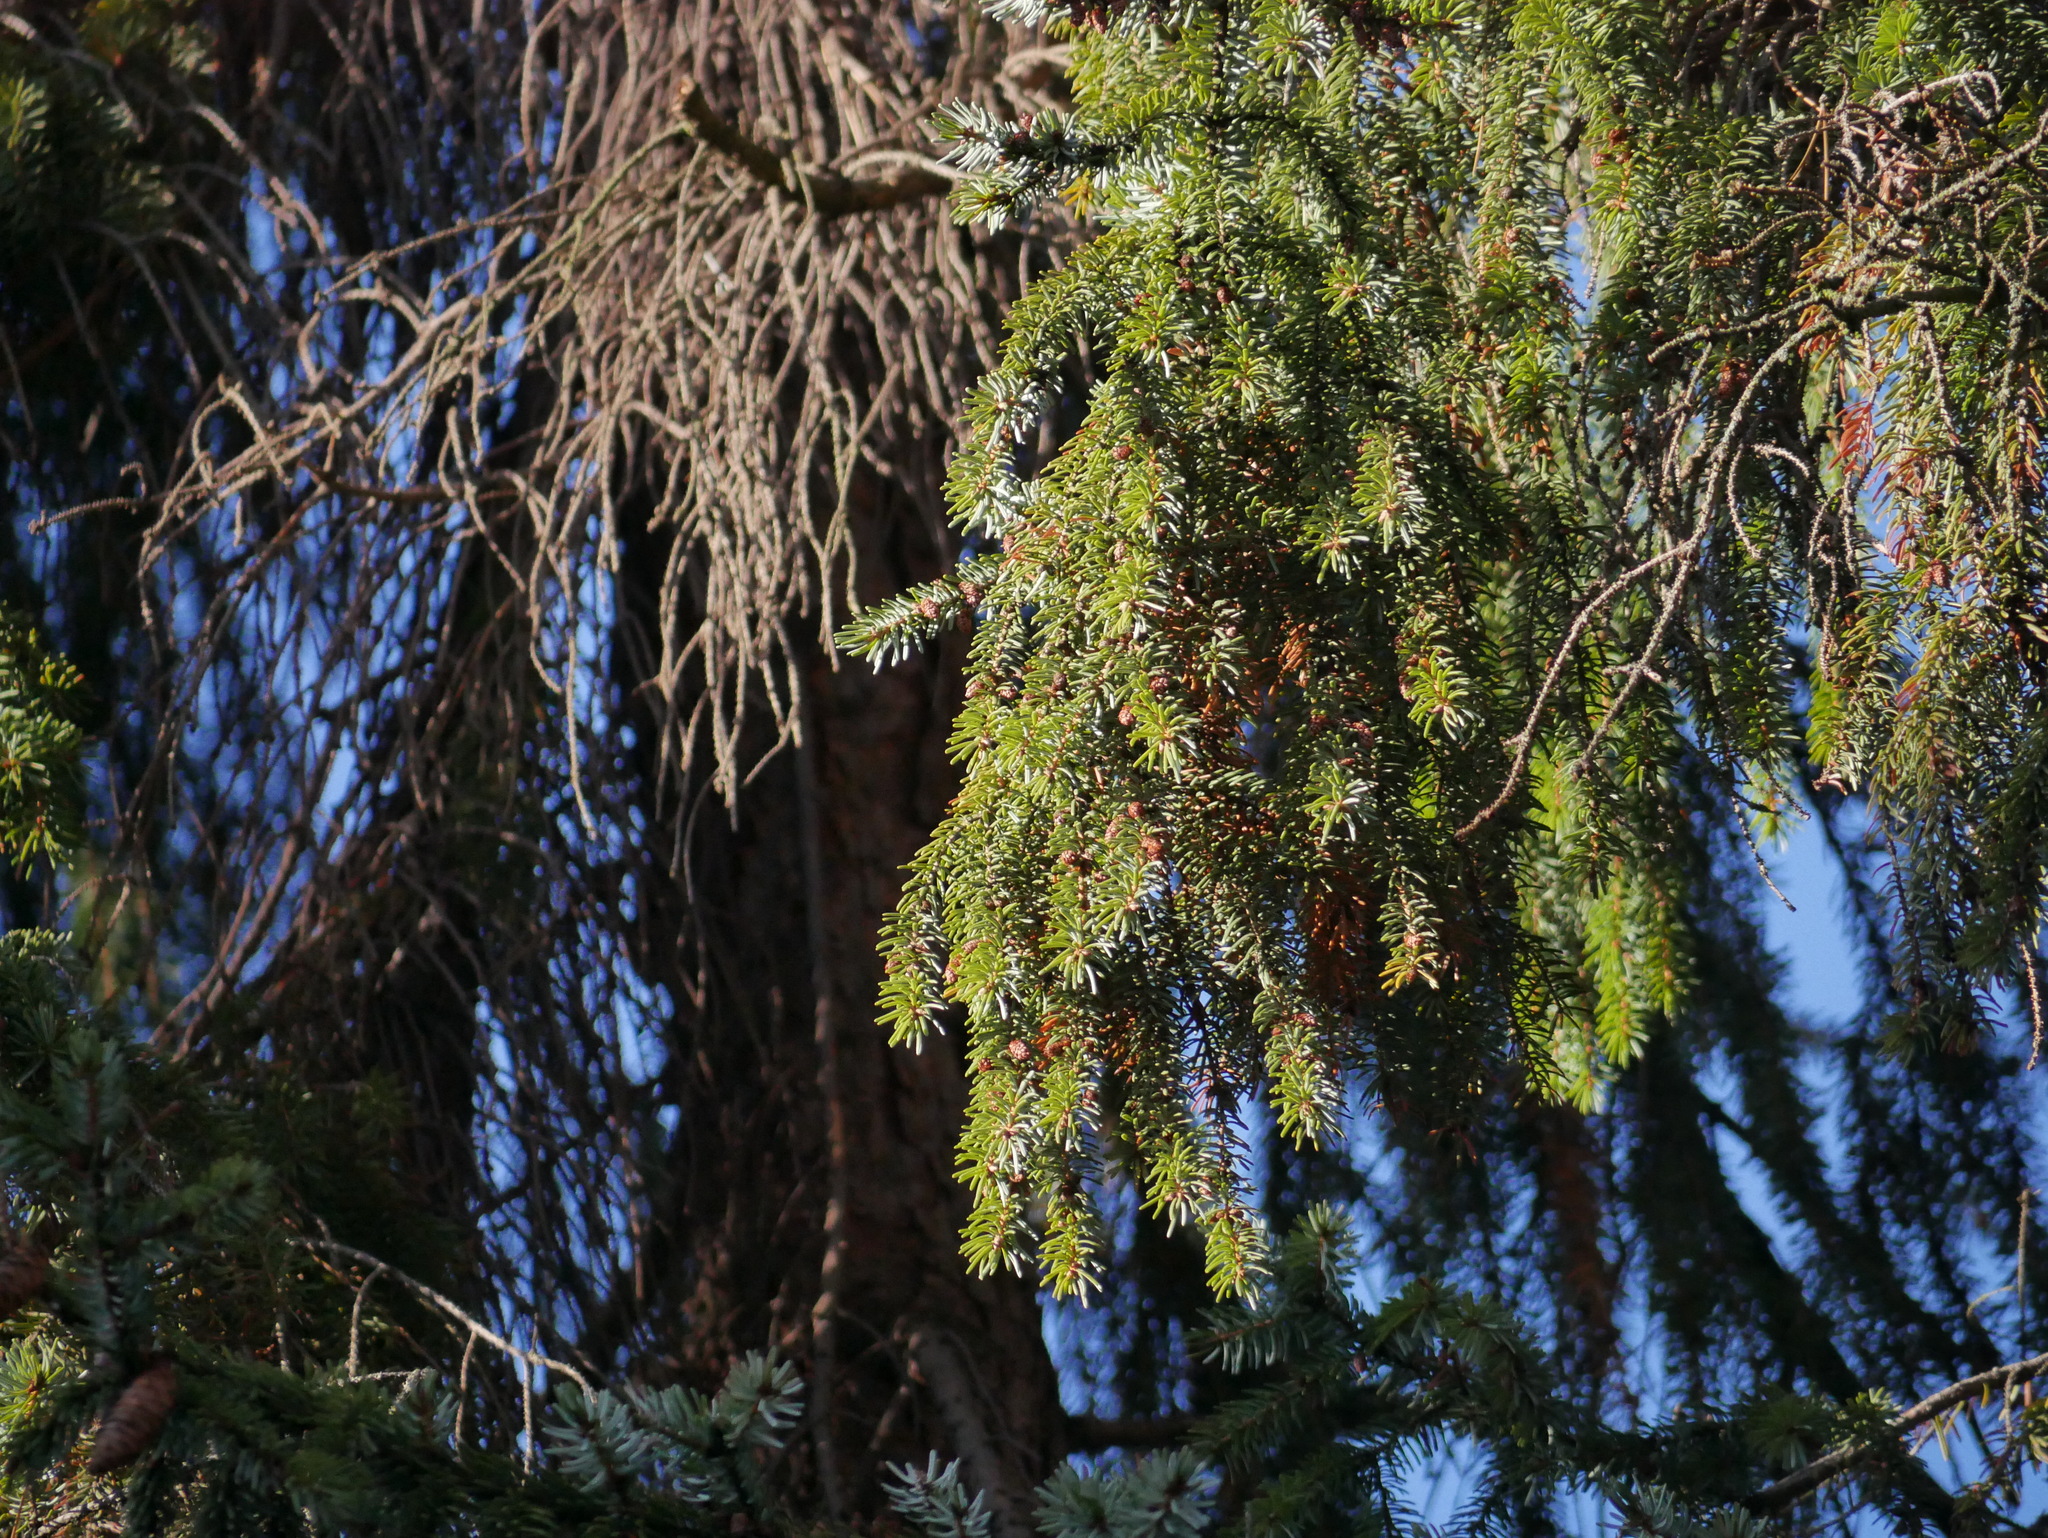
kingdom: Plantae
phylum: Tracheophyta
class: Pinopsida
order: Pinales
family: Pinaceae
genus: Picea
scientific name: Picea abies
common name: Norway spruce
